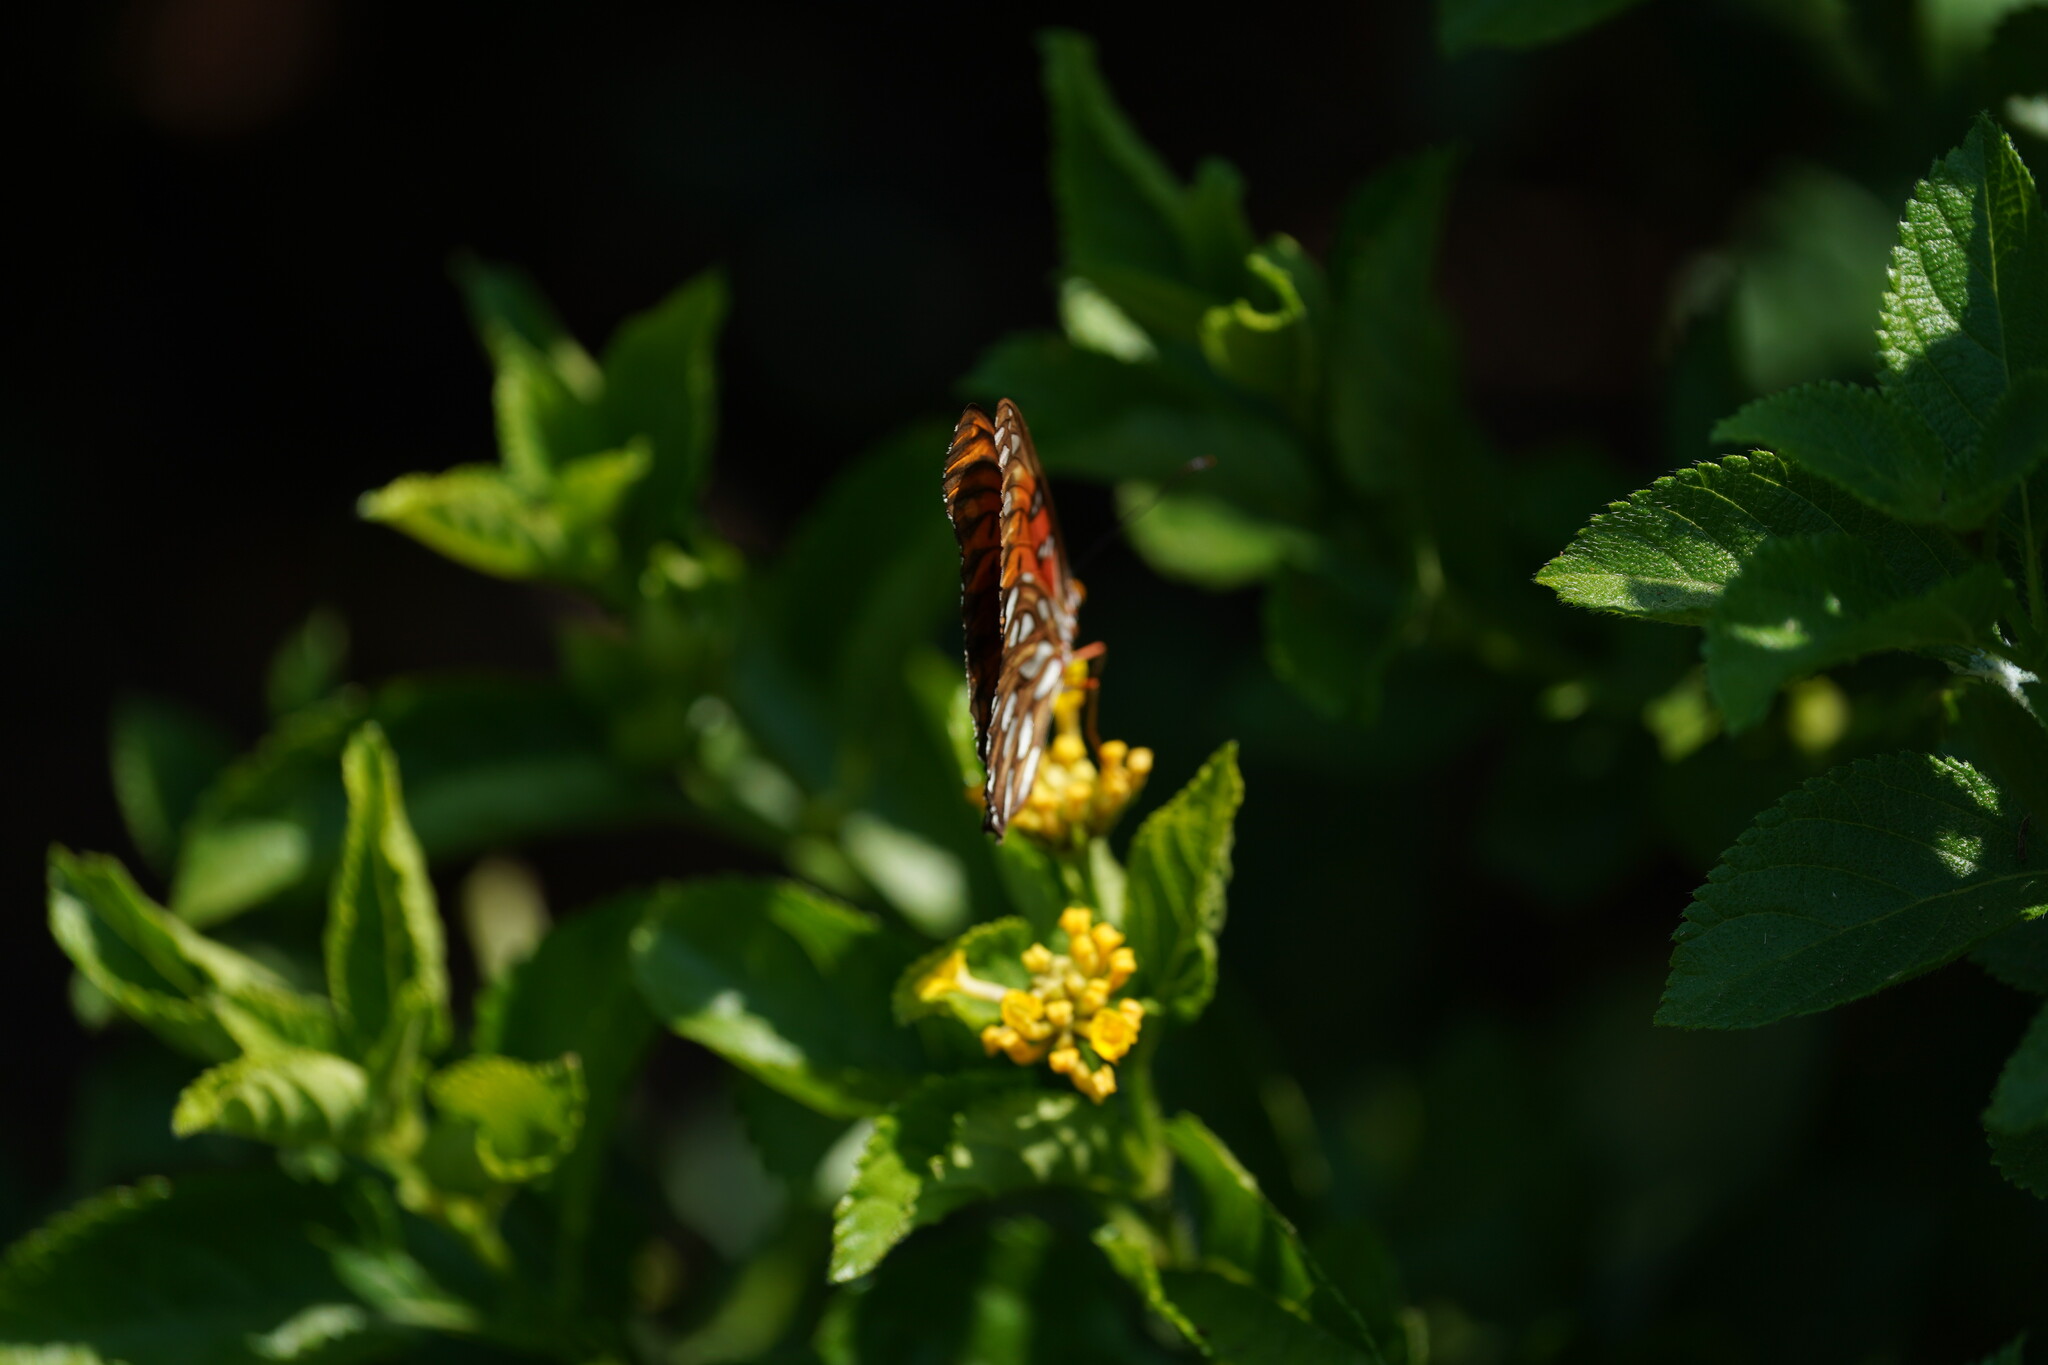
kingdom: Animalia
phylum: Arthropoda
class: Insecta
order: Lepidoptera
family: Nymphalidae
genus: Dione
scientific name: Dione vanillae
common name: Gulf fritillary
